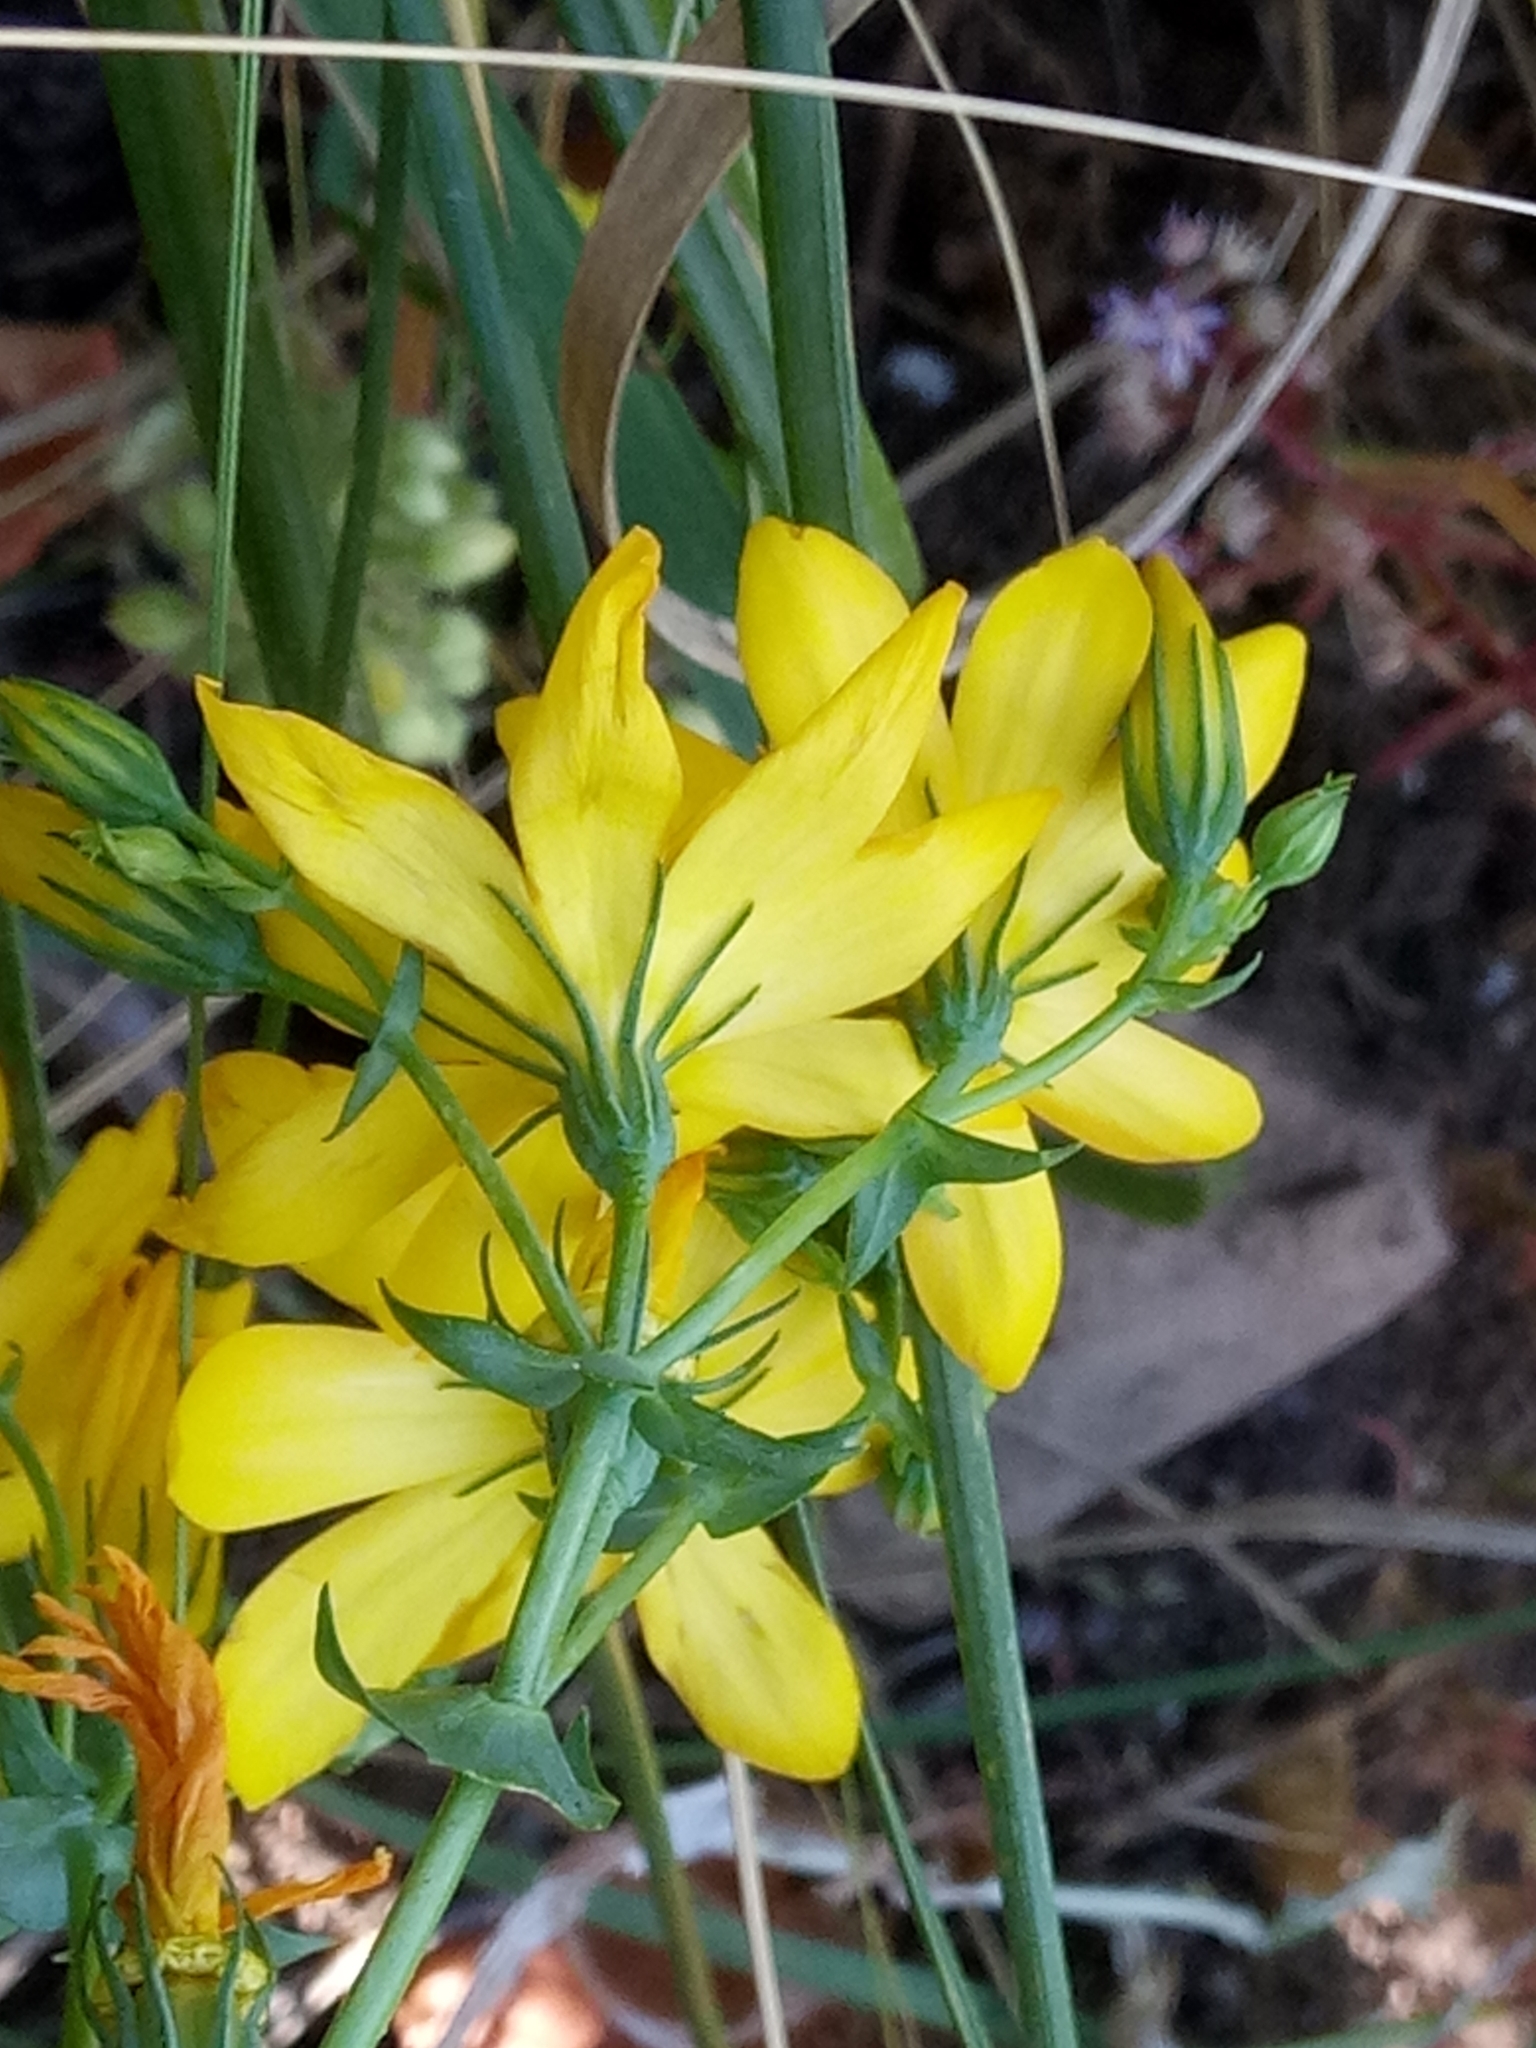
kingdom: Plantae
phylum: Tracheophyta
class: Magnoliopsida
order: Gentianales
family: Gentianaceae
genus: Blackstonia
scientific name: Blackstonia grandiflora
